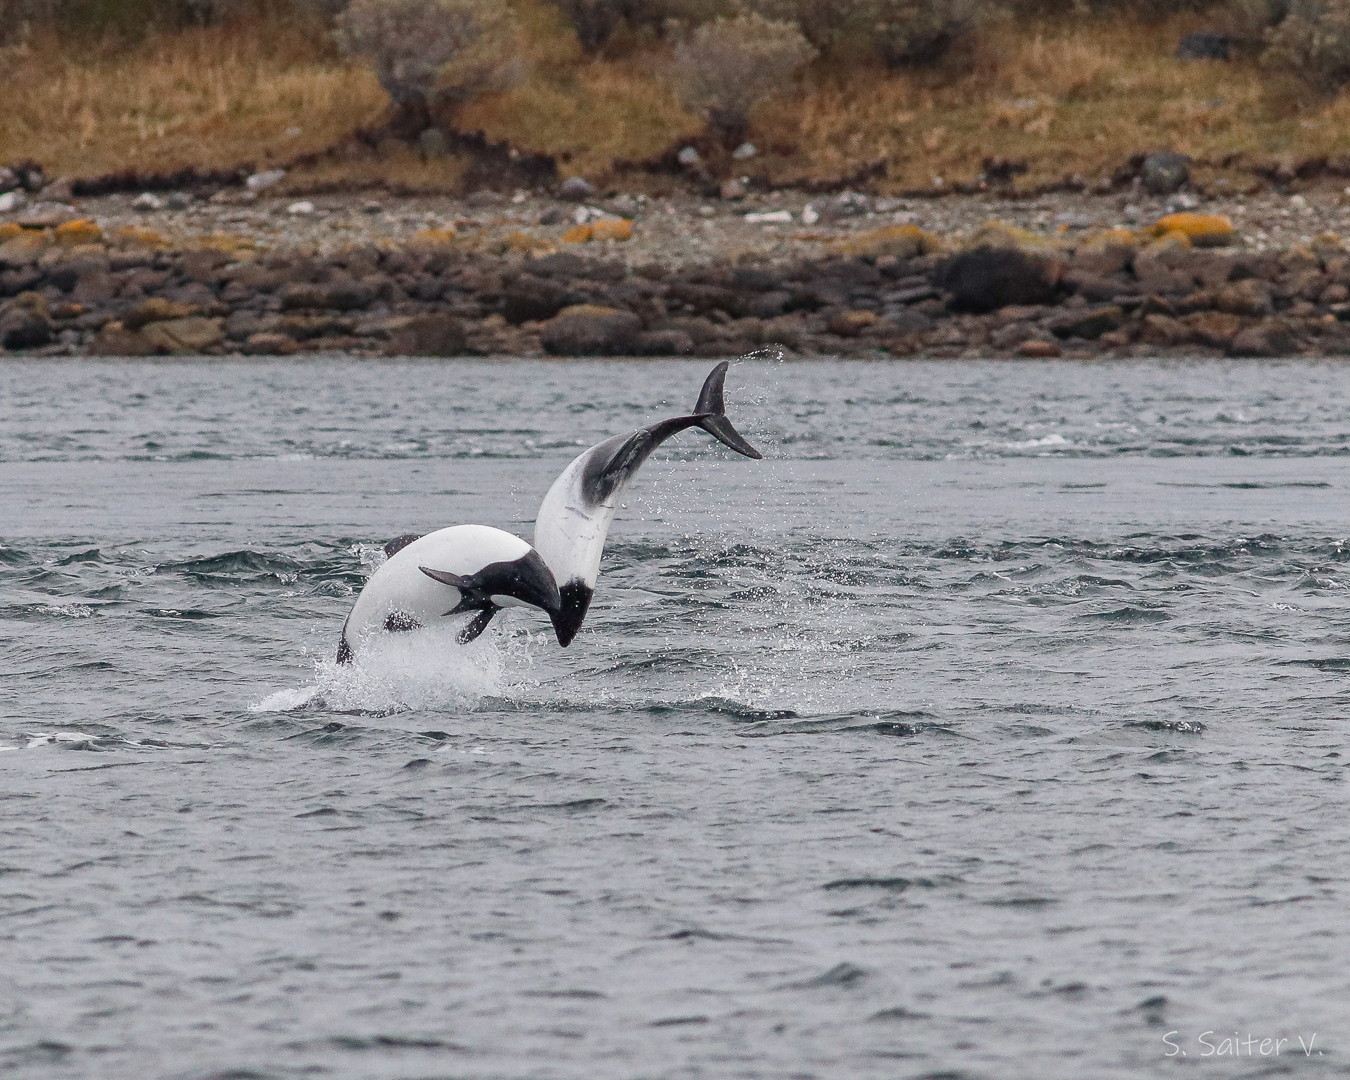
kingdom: Animalia
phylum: Chordata
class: Mammalia
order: Cetacea
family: Delphinidae
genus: Cephalorhynchus
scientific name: Cephalorhynchus commersonii
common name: Commerson's dolphin
